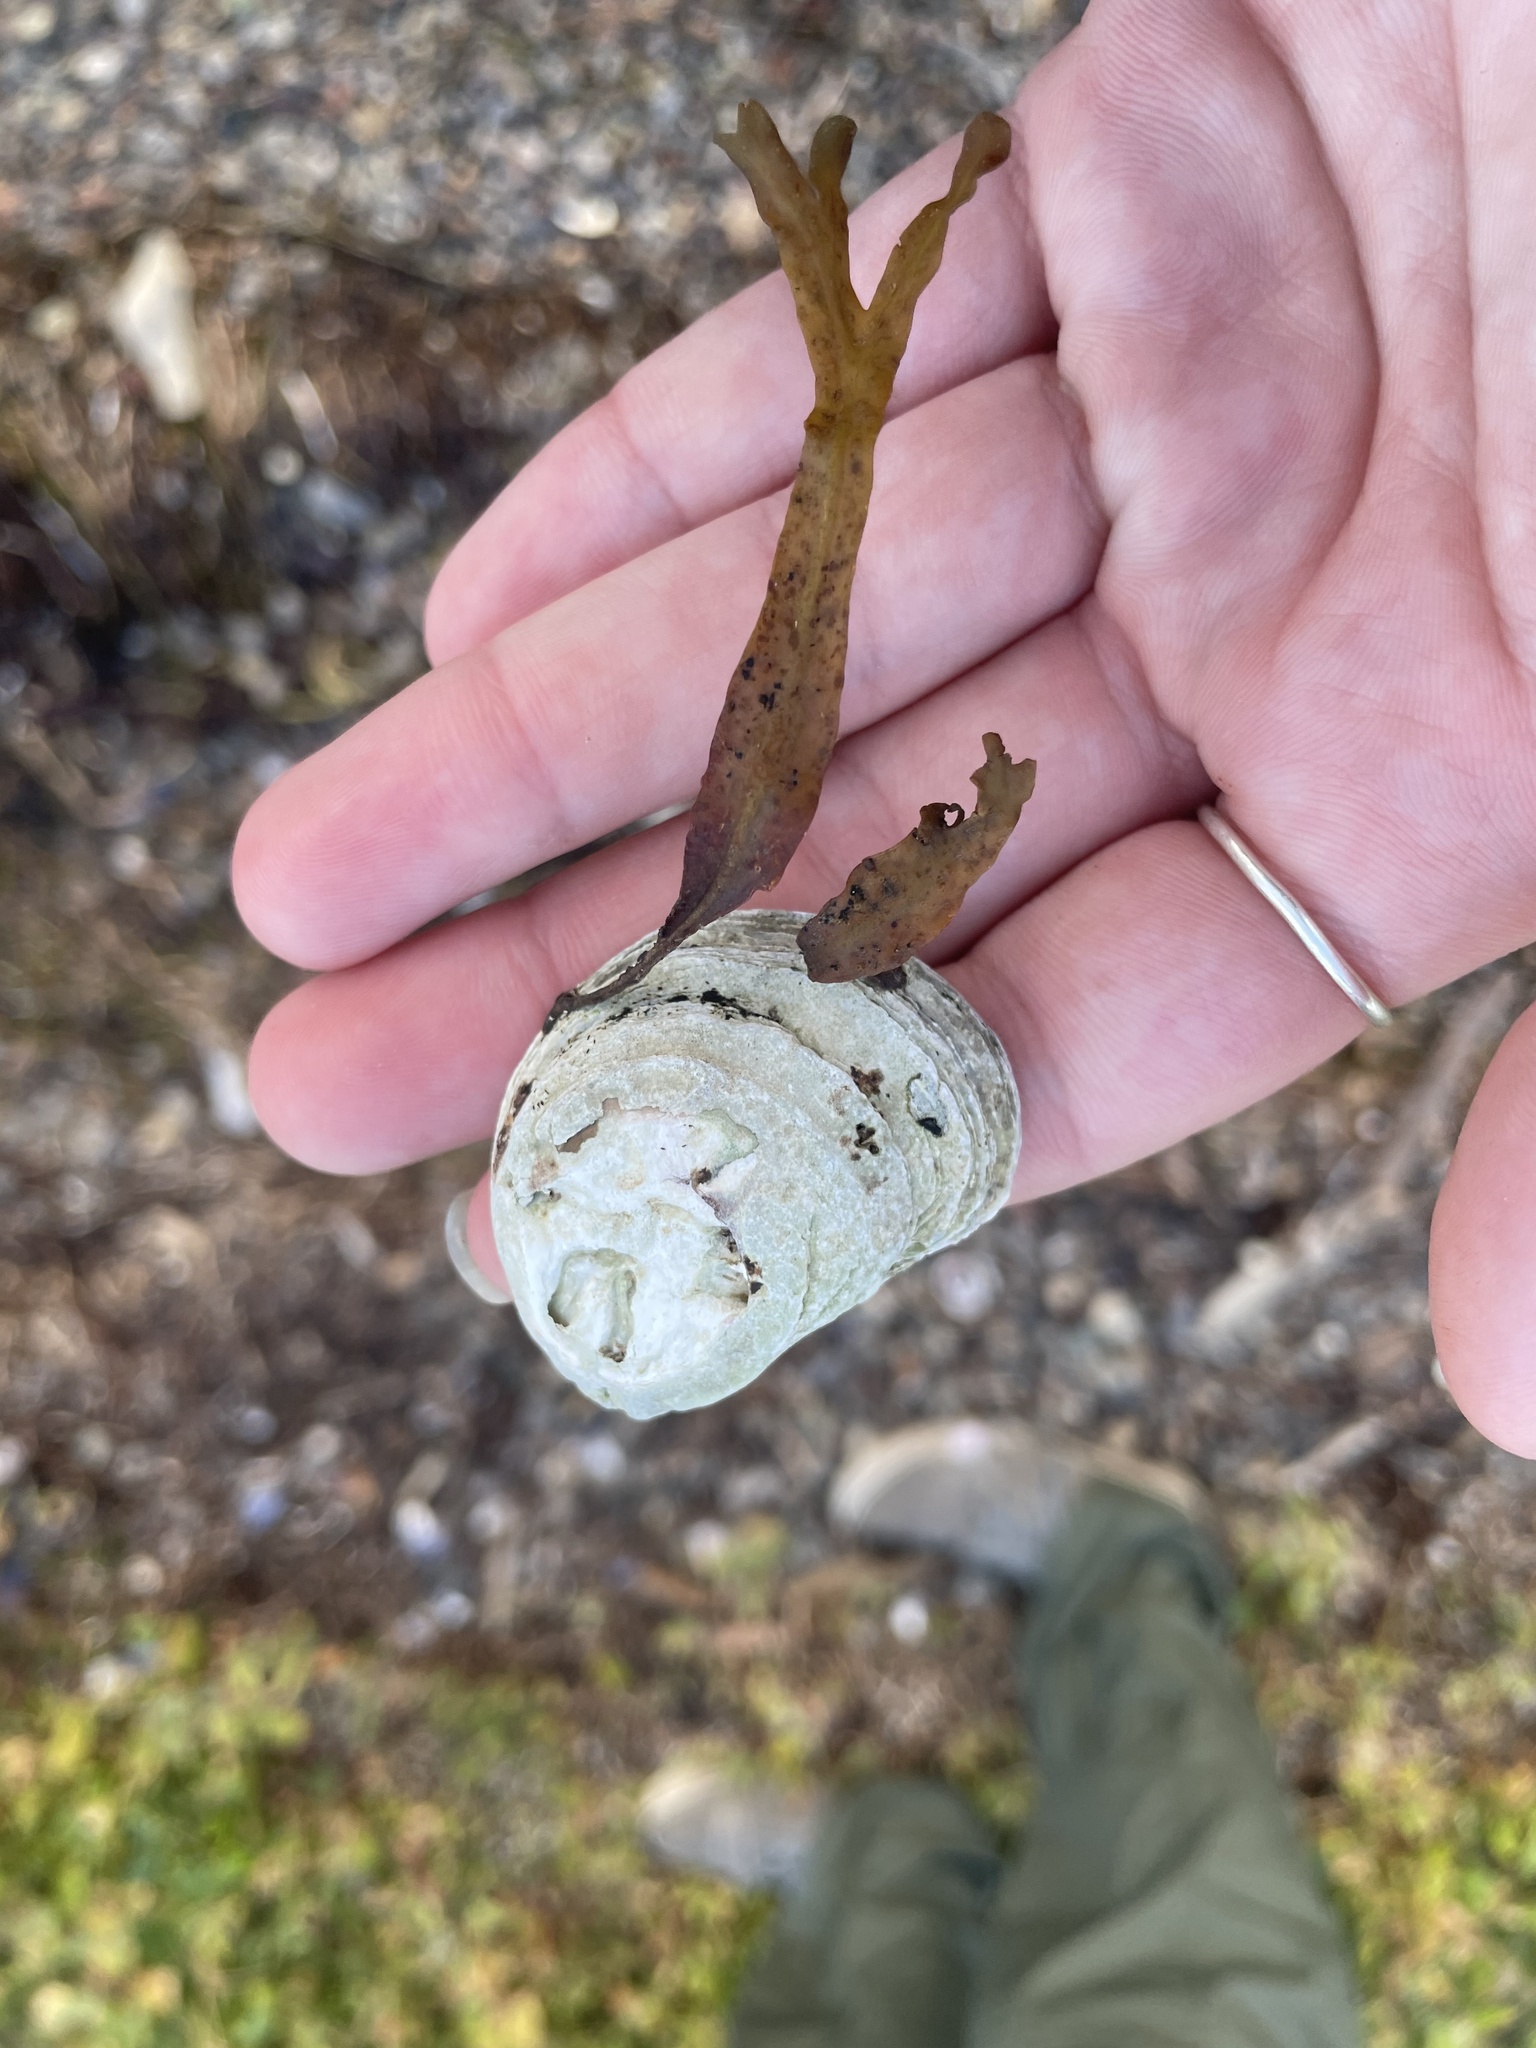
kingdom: Animalia
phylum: Mollusca
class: Bivalvia
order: Ostreida
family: Ostreidae
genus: Crassostrea
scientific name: Crassostrea virginica
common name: American oyster
